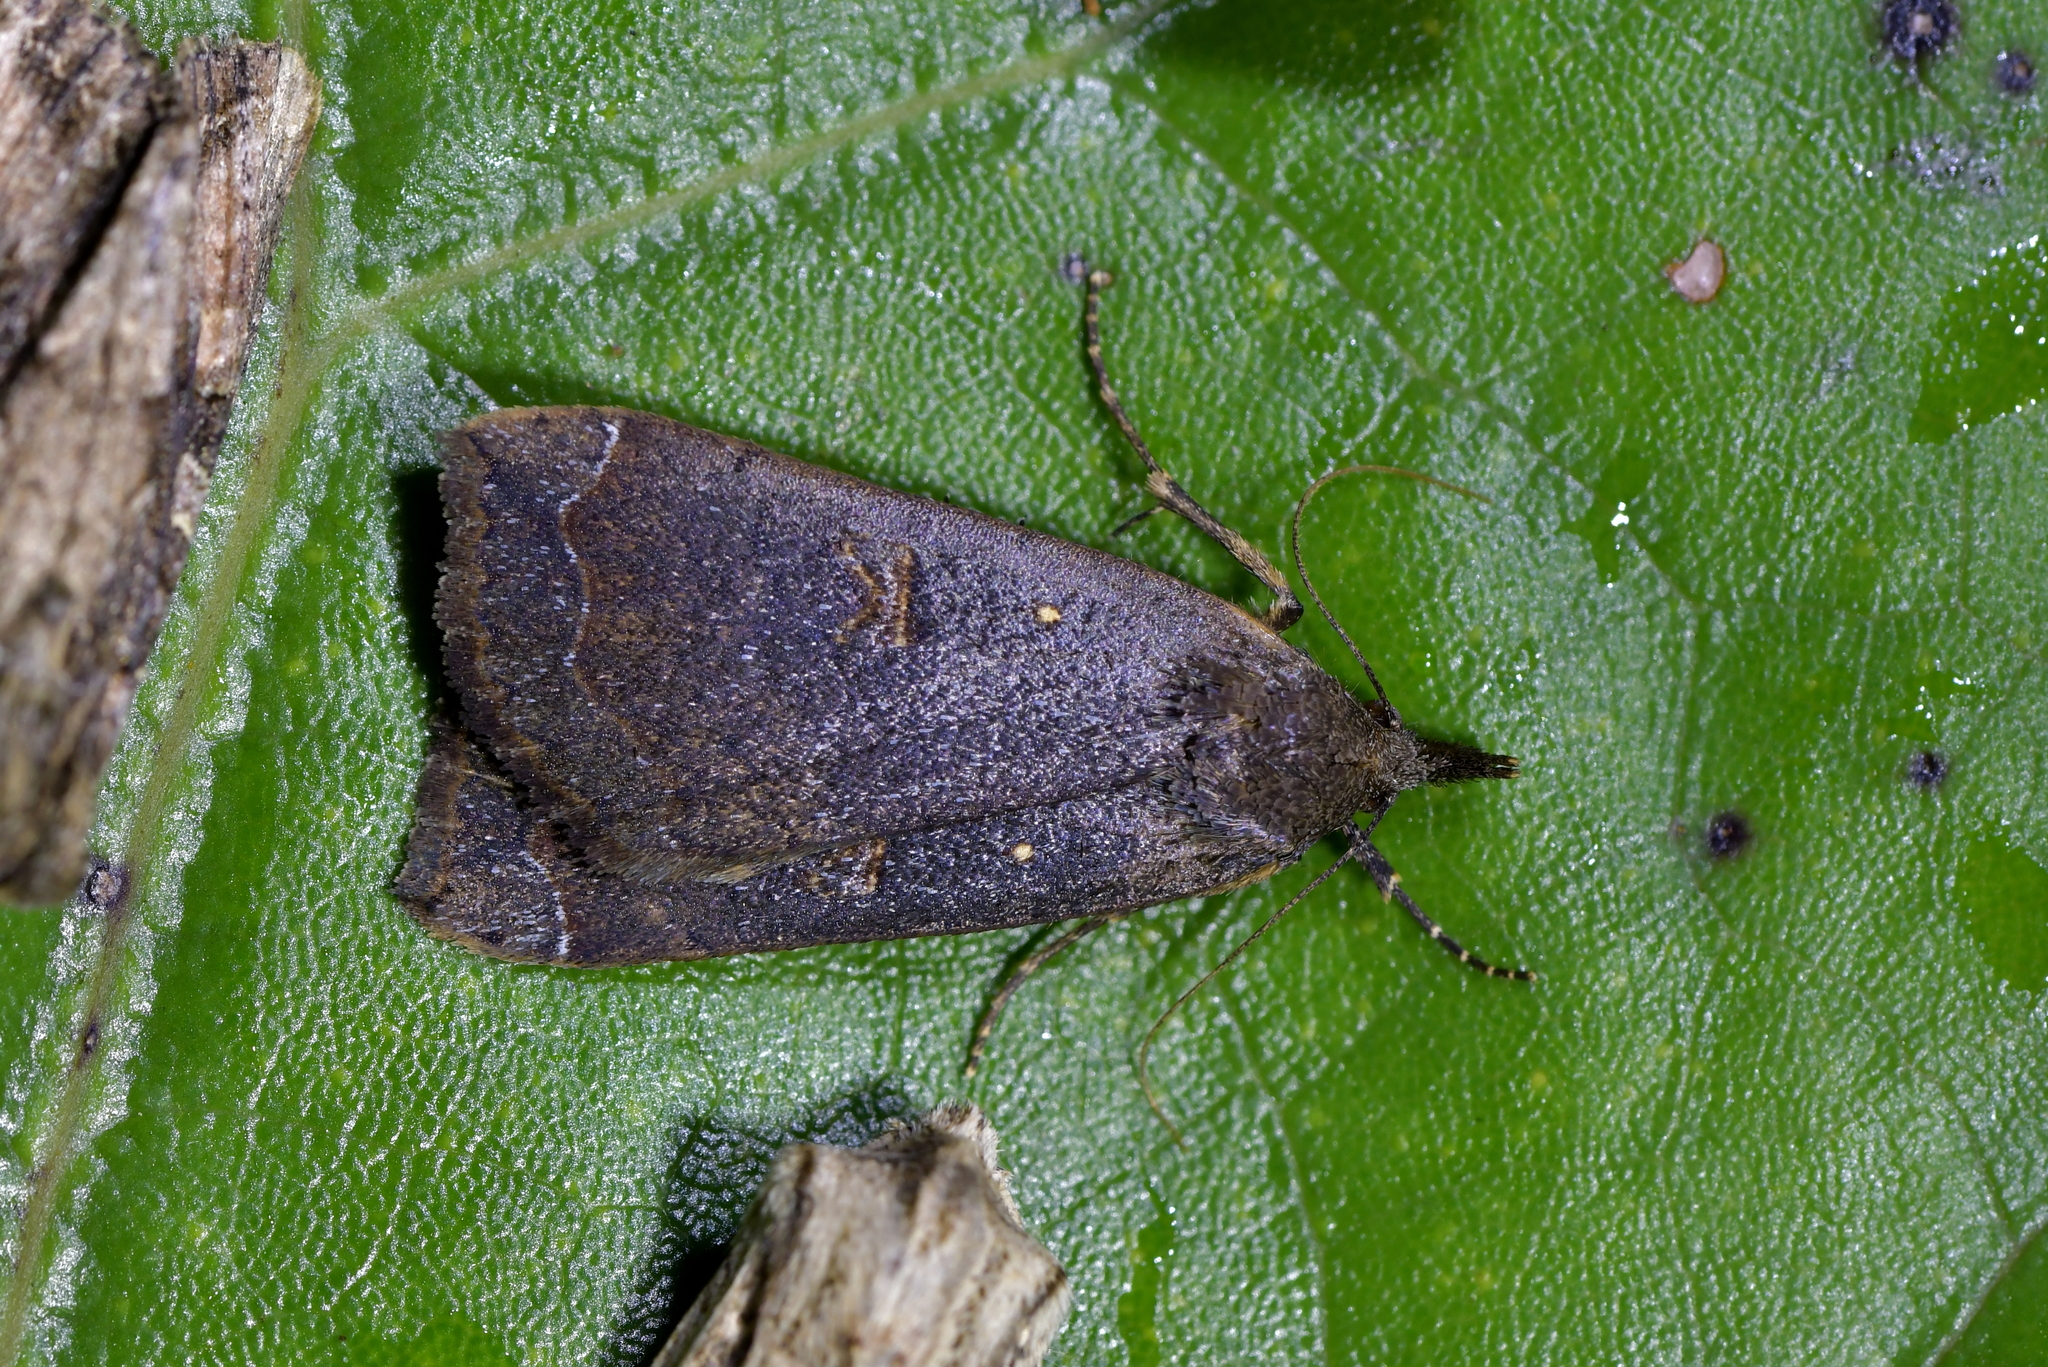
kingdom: Animalia
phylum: Arthropoda
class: Insecta
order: Lepidoptera
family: Erebidae
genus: Rhapsa
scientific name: Rhapsa scotosialis
